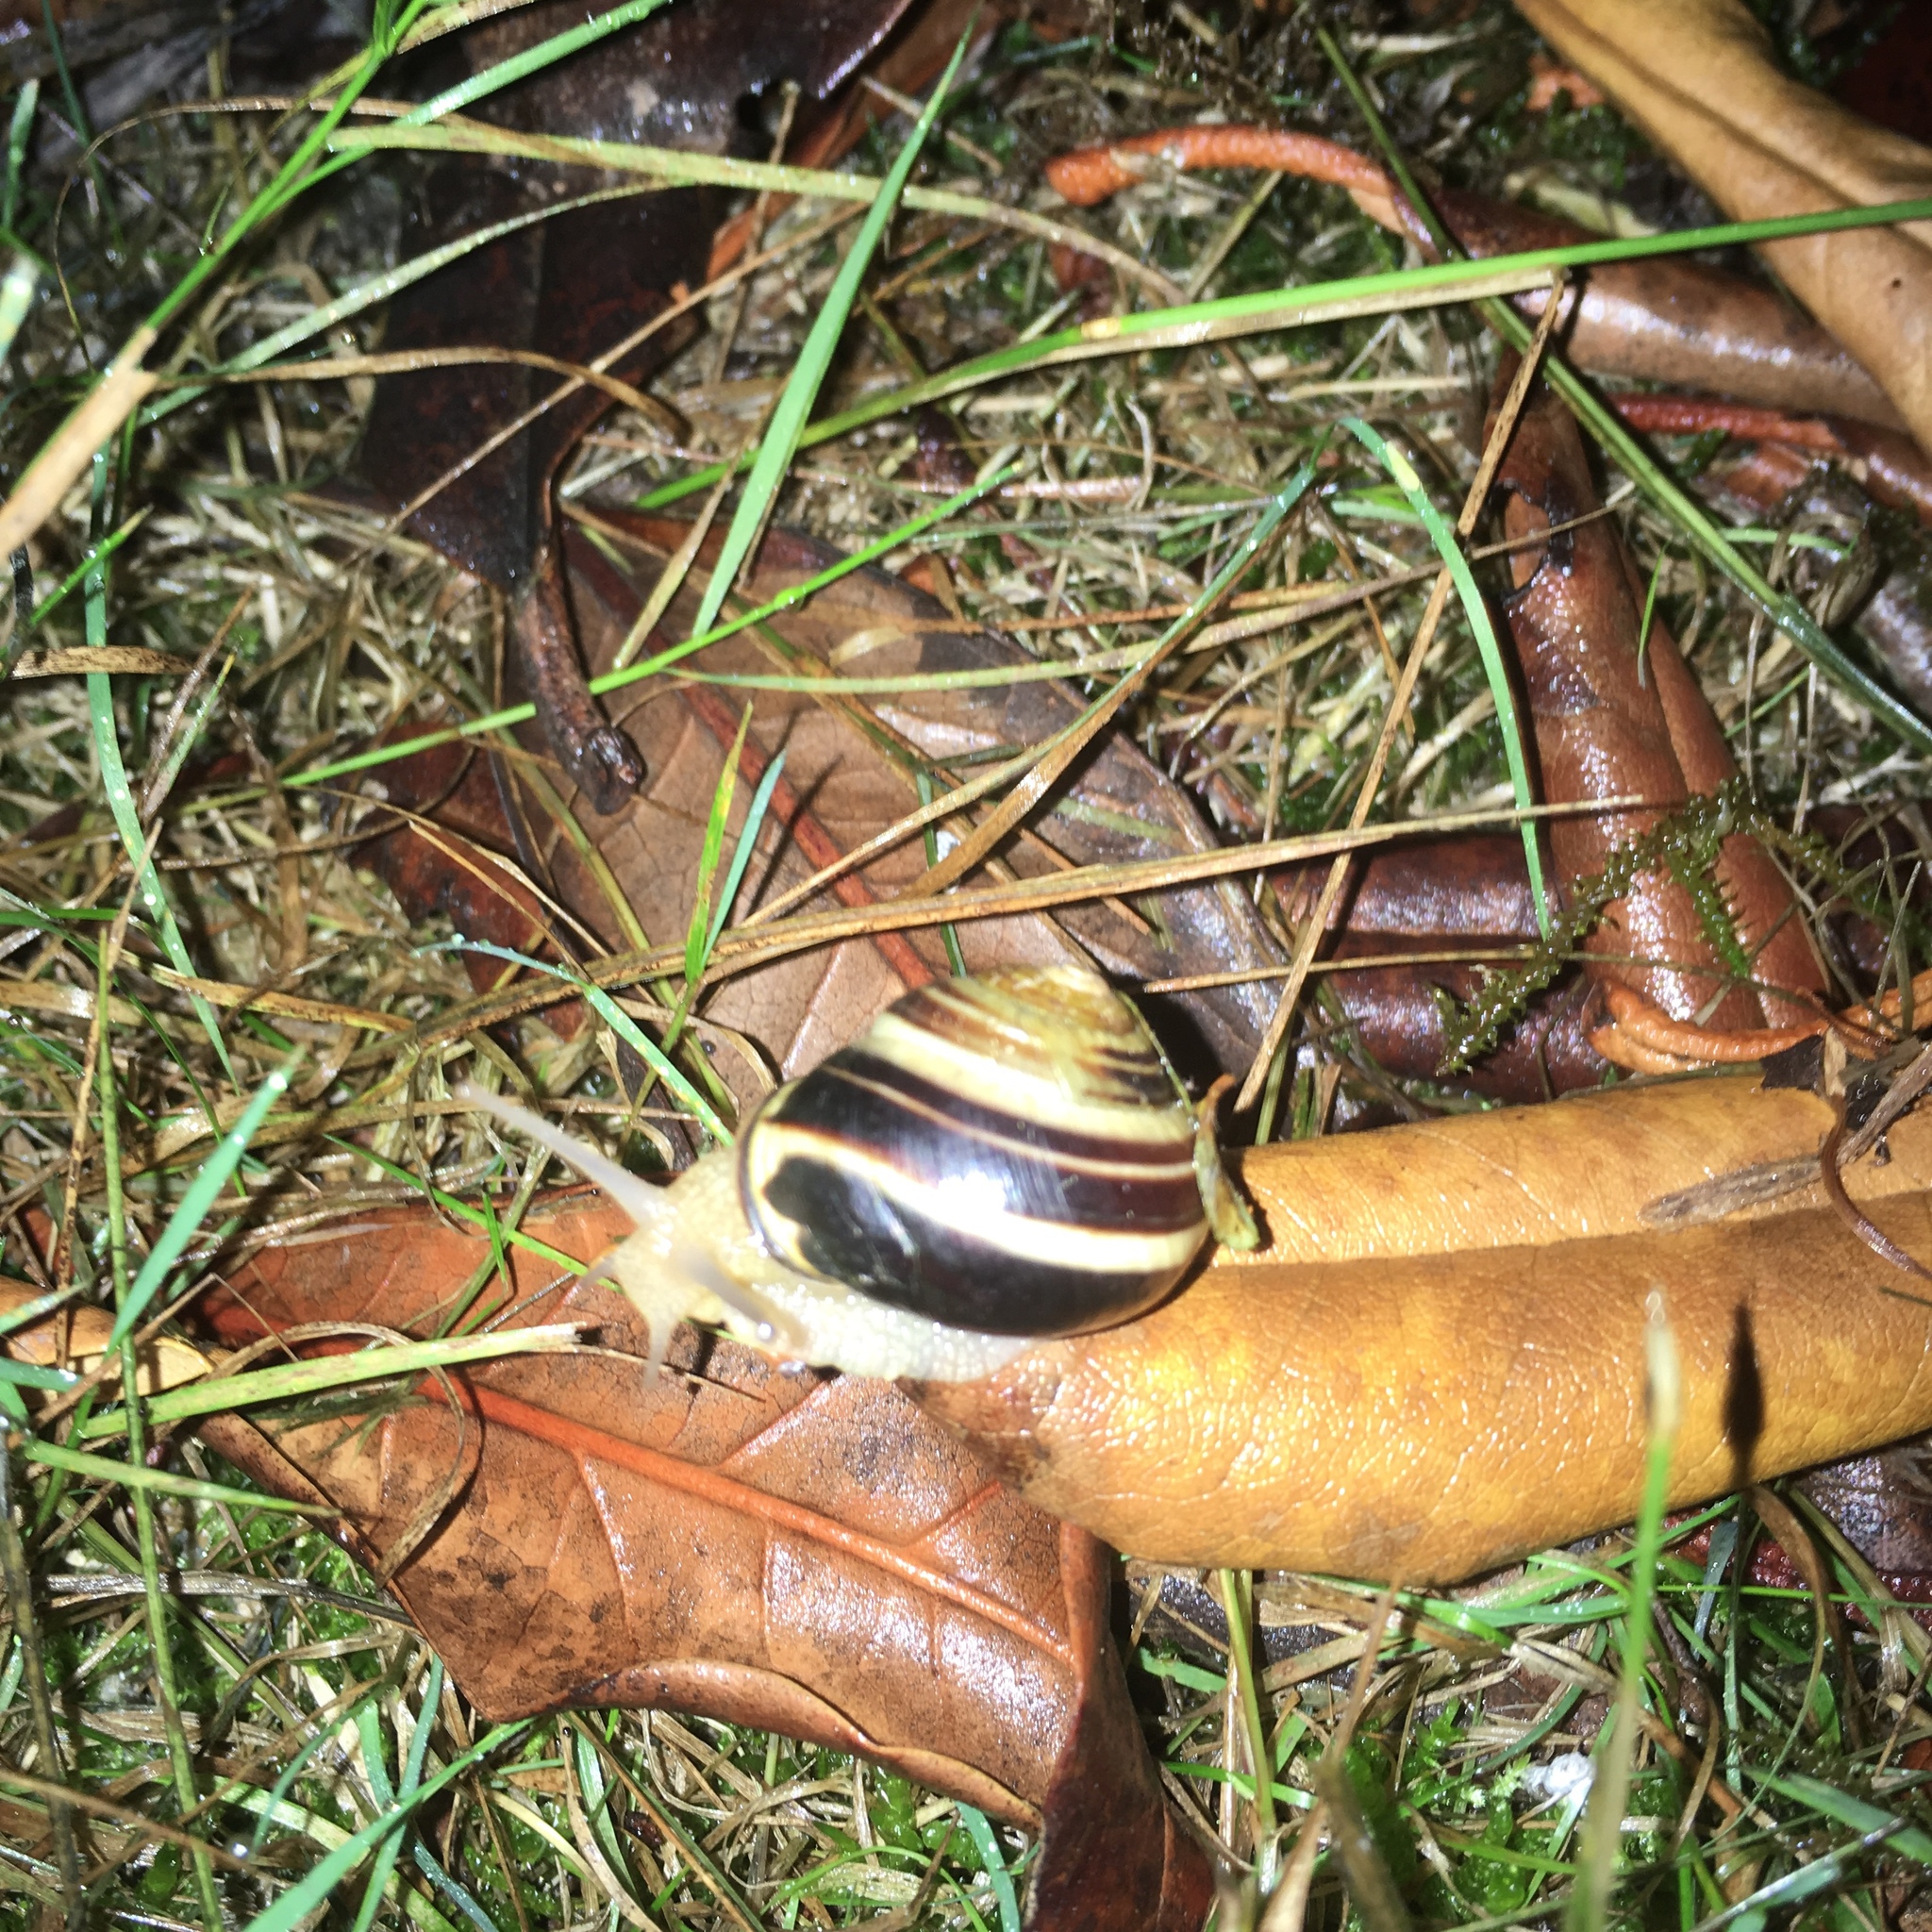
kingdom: Animalia
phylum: Mollusca
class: Gastropoda
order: Stylommatophora
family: Helicidae
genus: Cepaea
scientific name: Cepaea nemoralis
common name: Grovesnail
